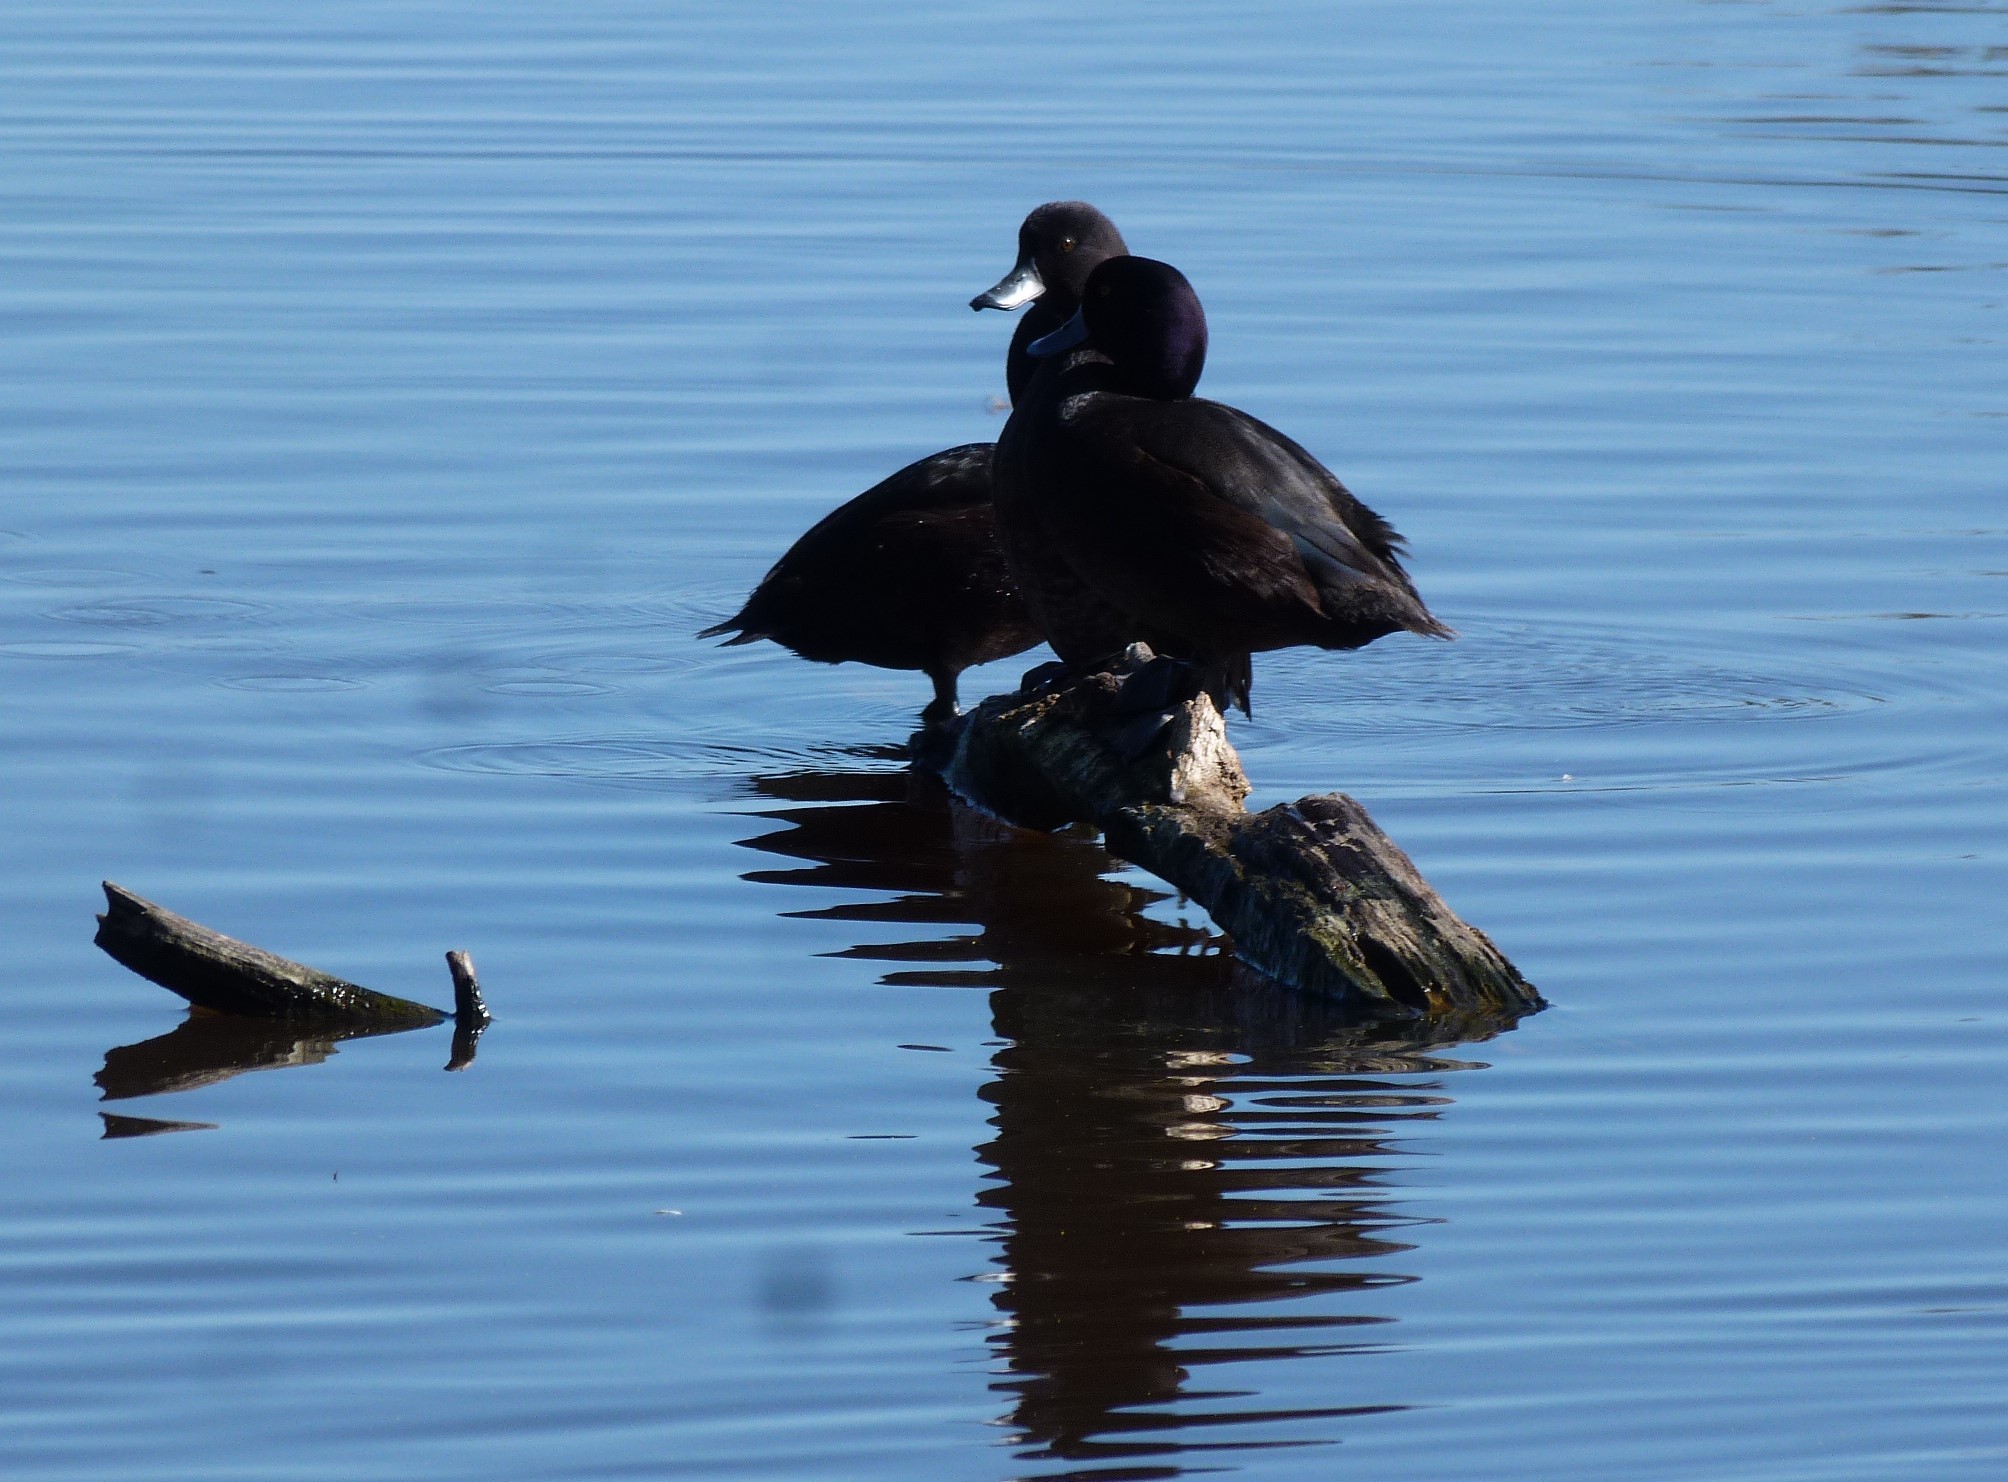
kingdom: Animalia
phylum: Chordata
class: Aves
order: Anseriformes
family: Anatidae
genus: Aythya
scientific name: Aythya novaeseelandiae
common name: New zealand scaup
